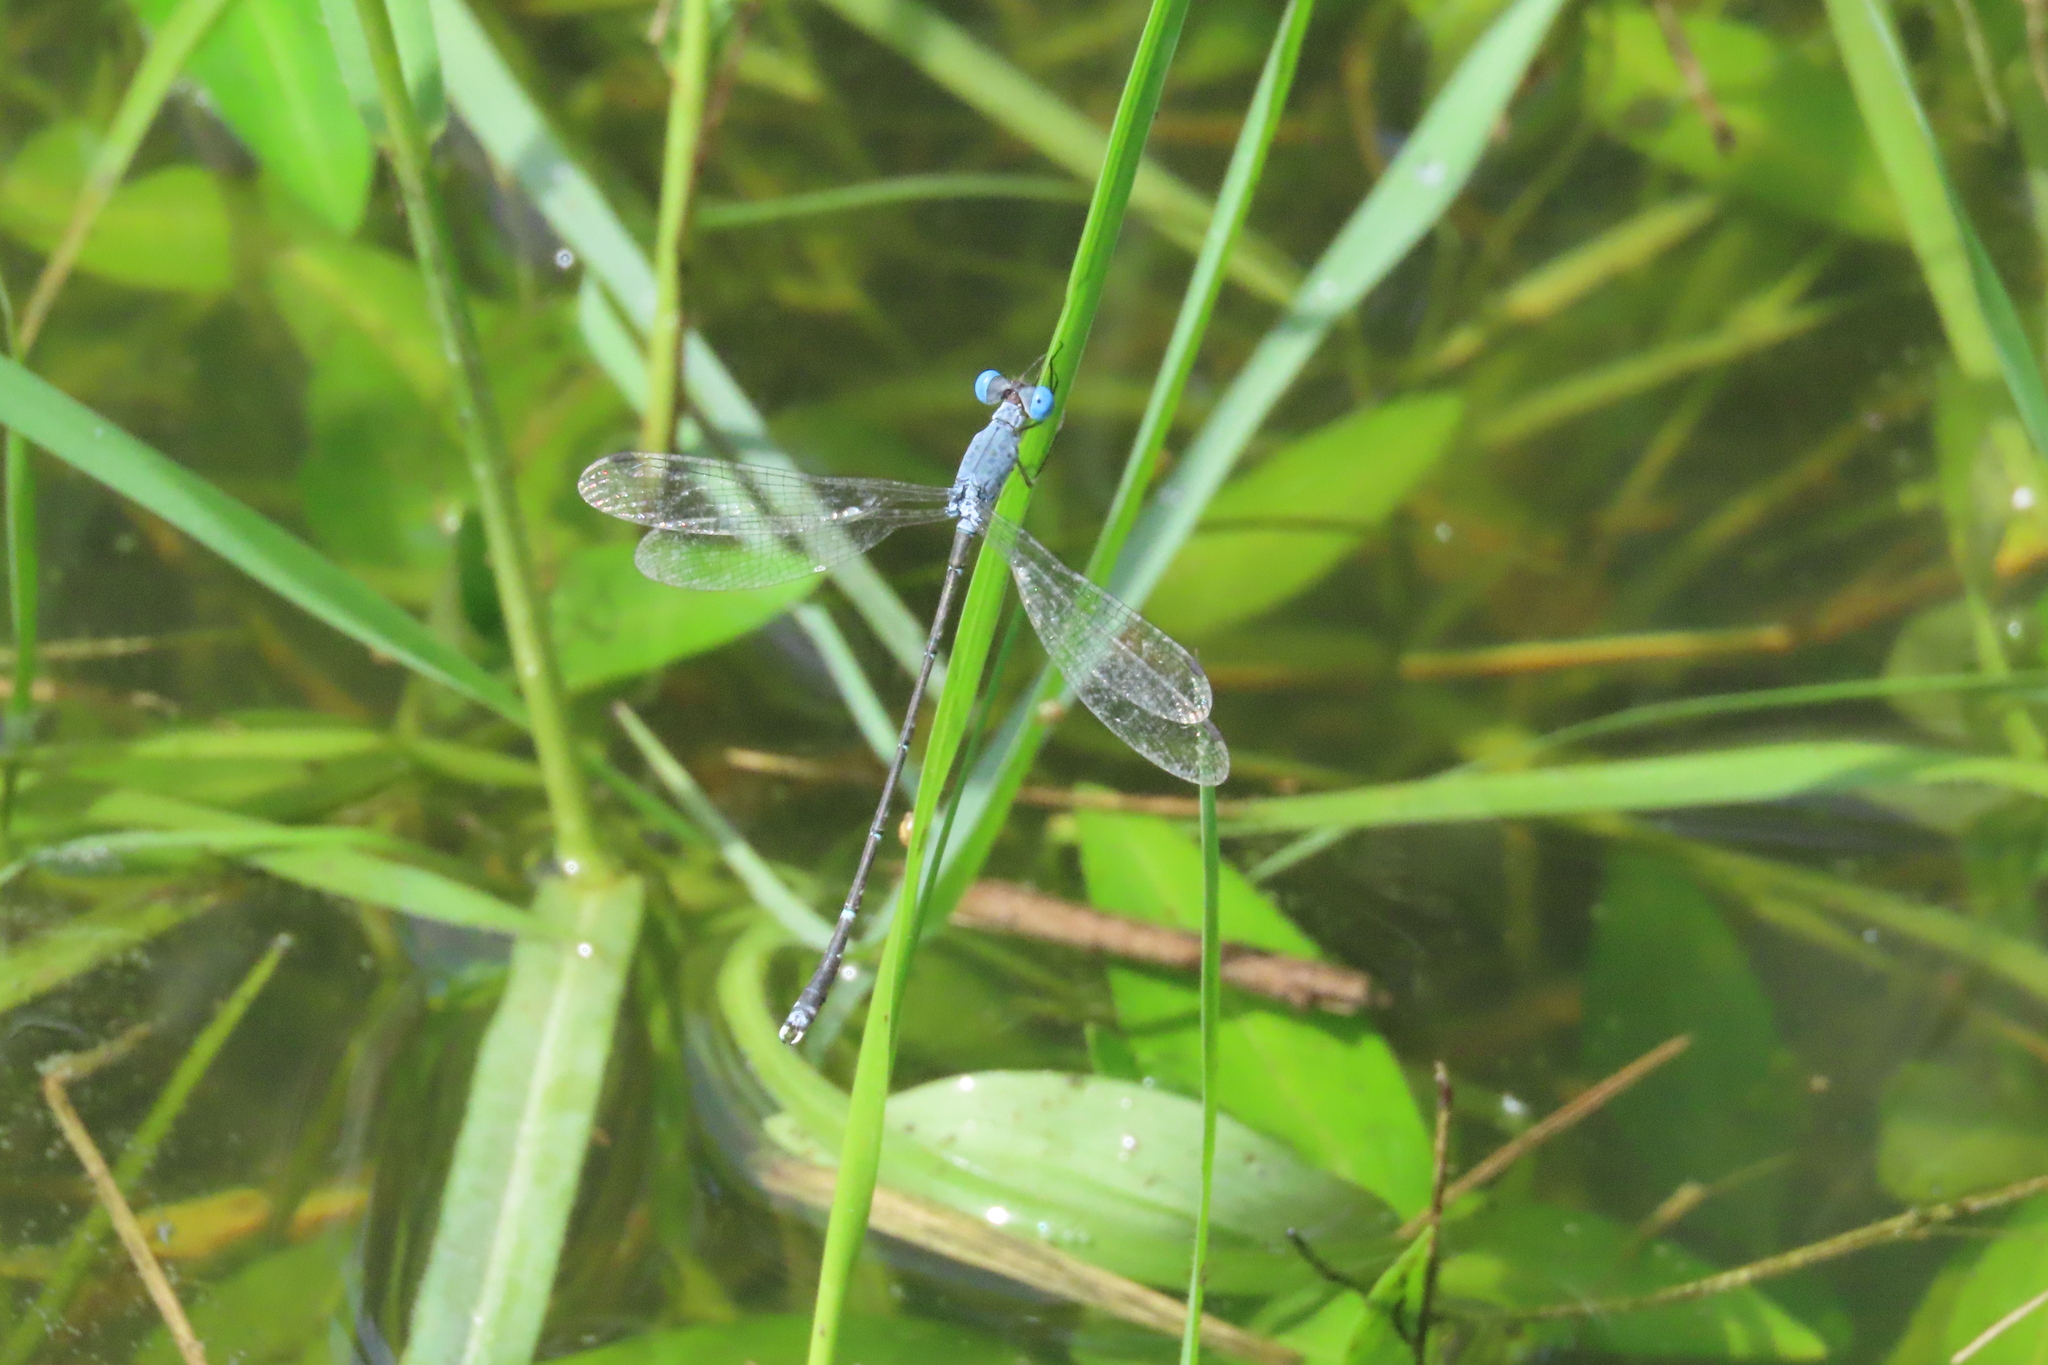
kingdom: Animalia
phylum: Arthropoda
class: Insecta
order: Odonata
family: Lestidae
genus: Lestes
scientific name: Lestes praemorsus
